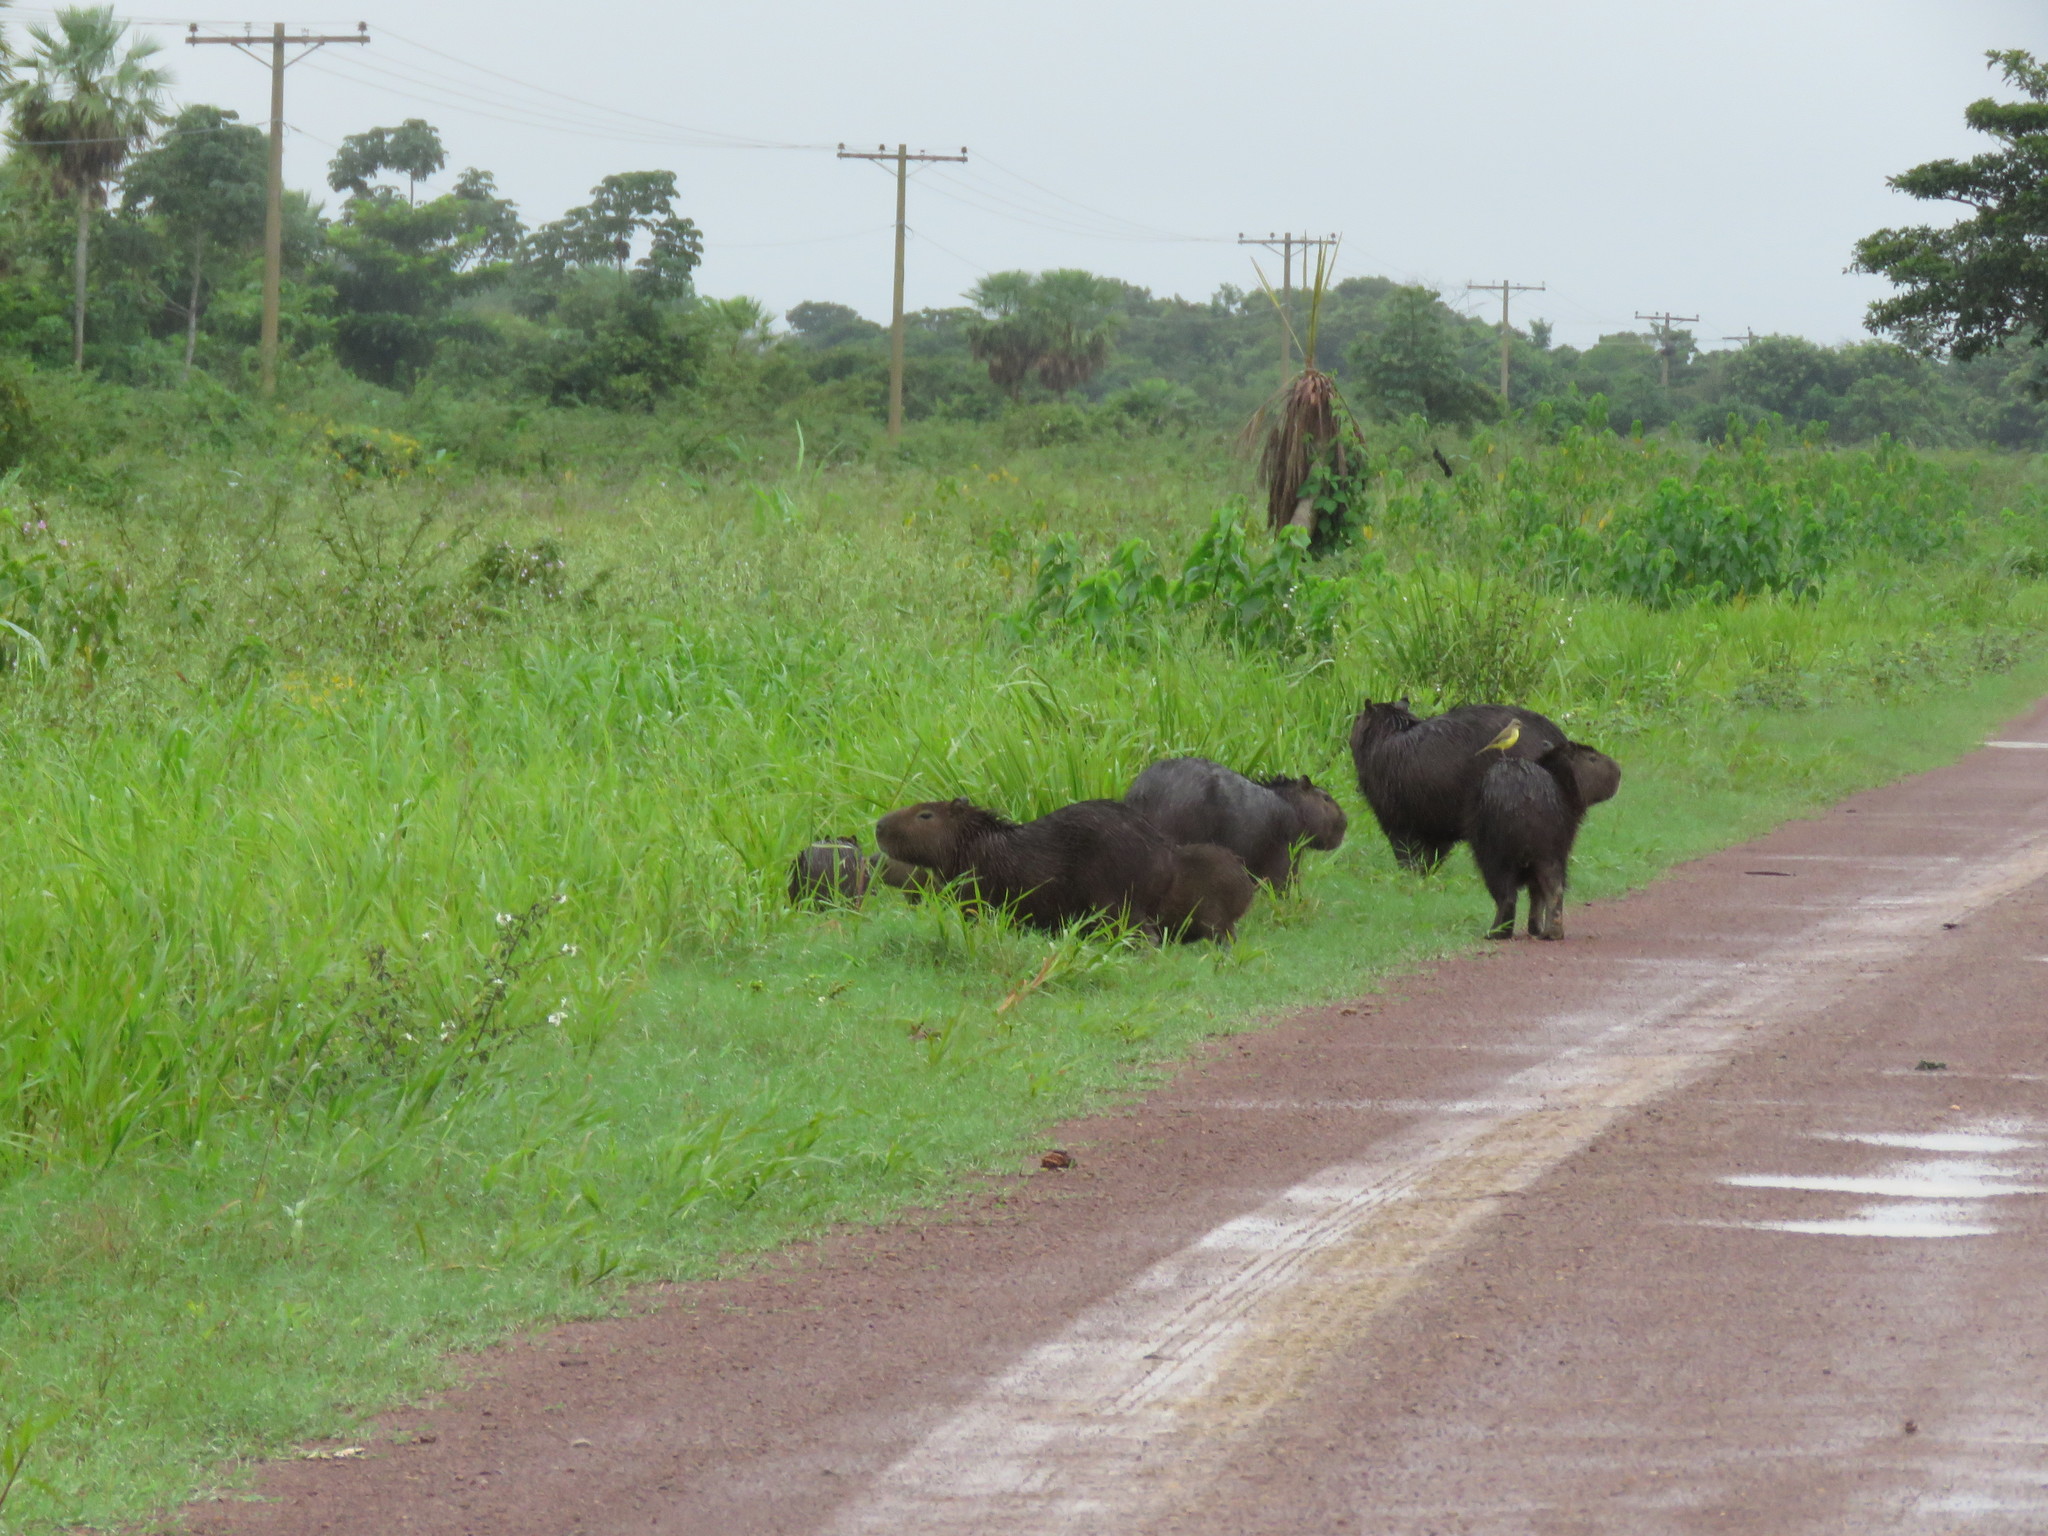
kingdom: Animalia
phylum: Chordata
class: Mammalia
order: Rodentia
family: Caviidae
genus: Hydrochoerus
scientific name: Hydrochoerus hydrochaeris
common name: Capybara
